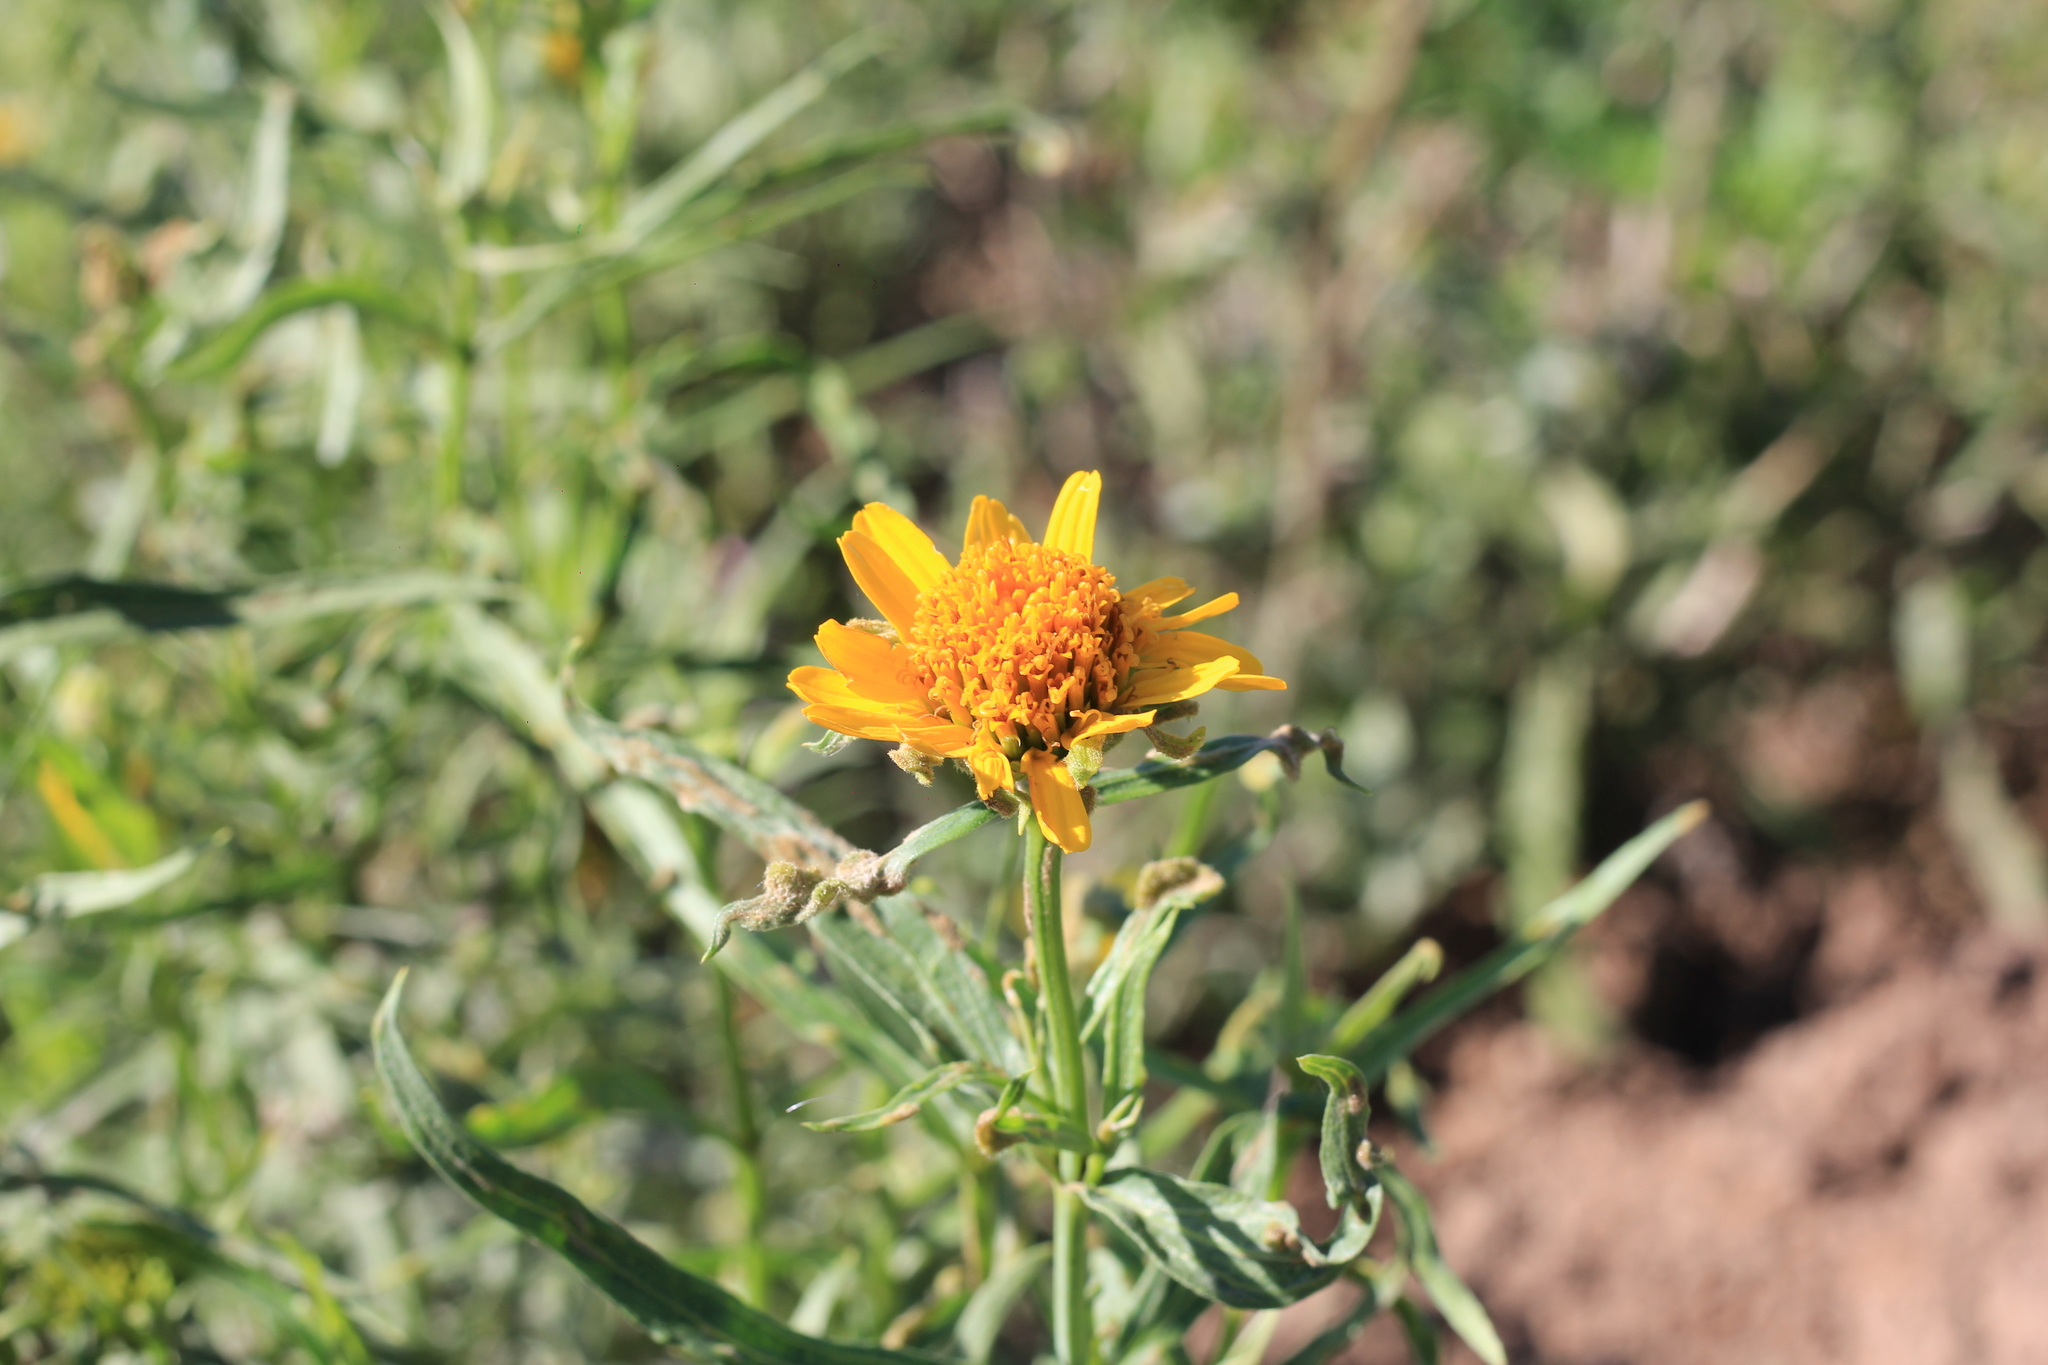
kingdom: Plantae
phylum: Tracheophyta
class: Magnoliopsida
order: Asterales
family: Asteraceae
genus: Pascalia
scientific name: Pascalia glauca
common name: Beach creeping oxeye
